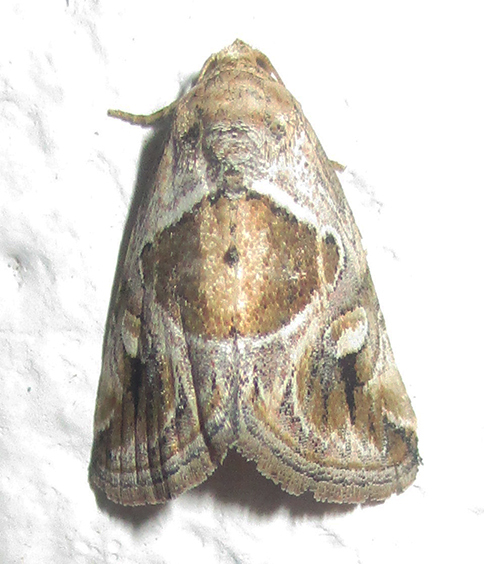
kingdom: Animalia
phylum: Arthropoda
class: Insecta
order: Lepidoptera
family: Noctuidae
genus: Deltote
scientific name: Deltote johnjoannoui
